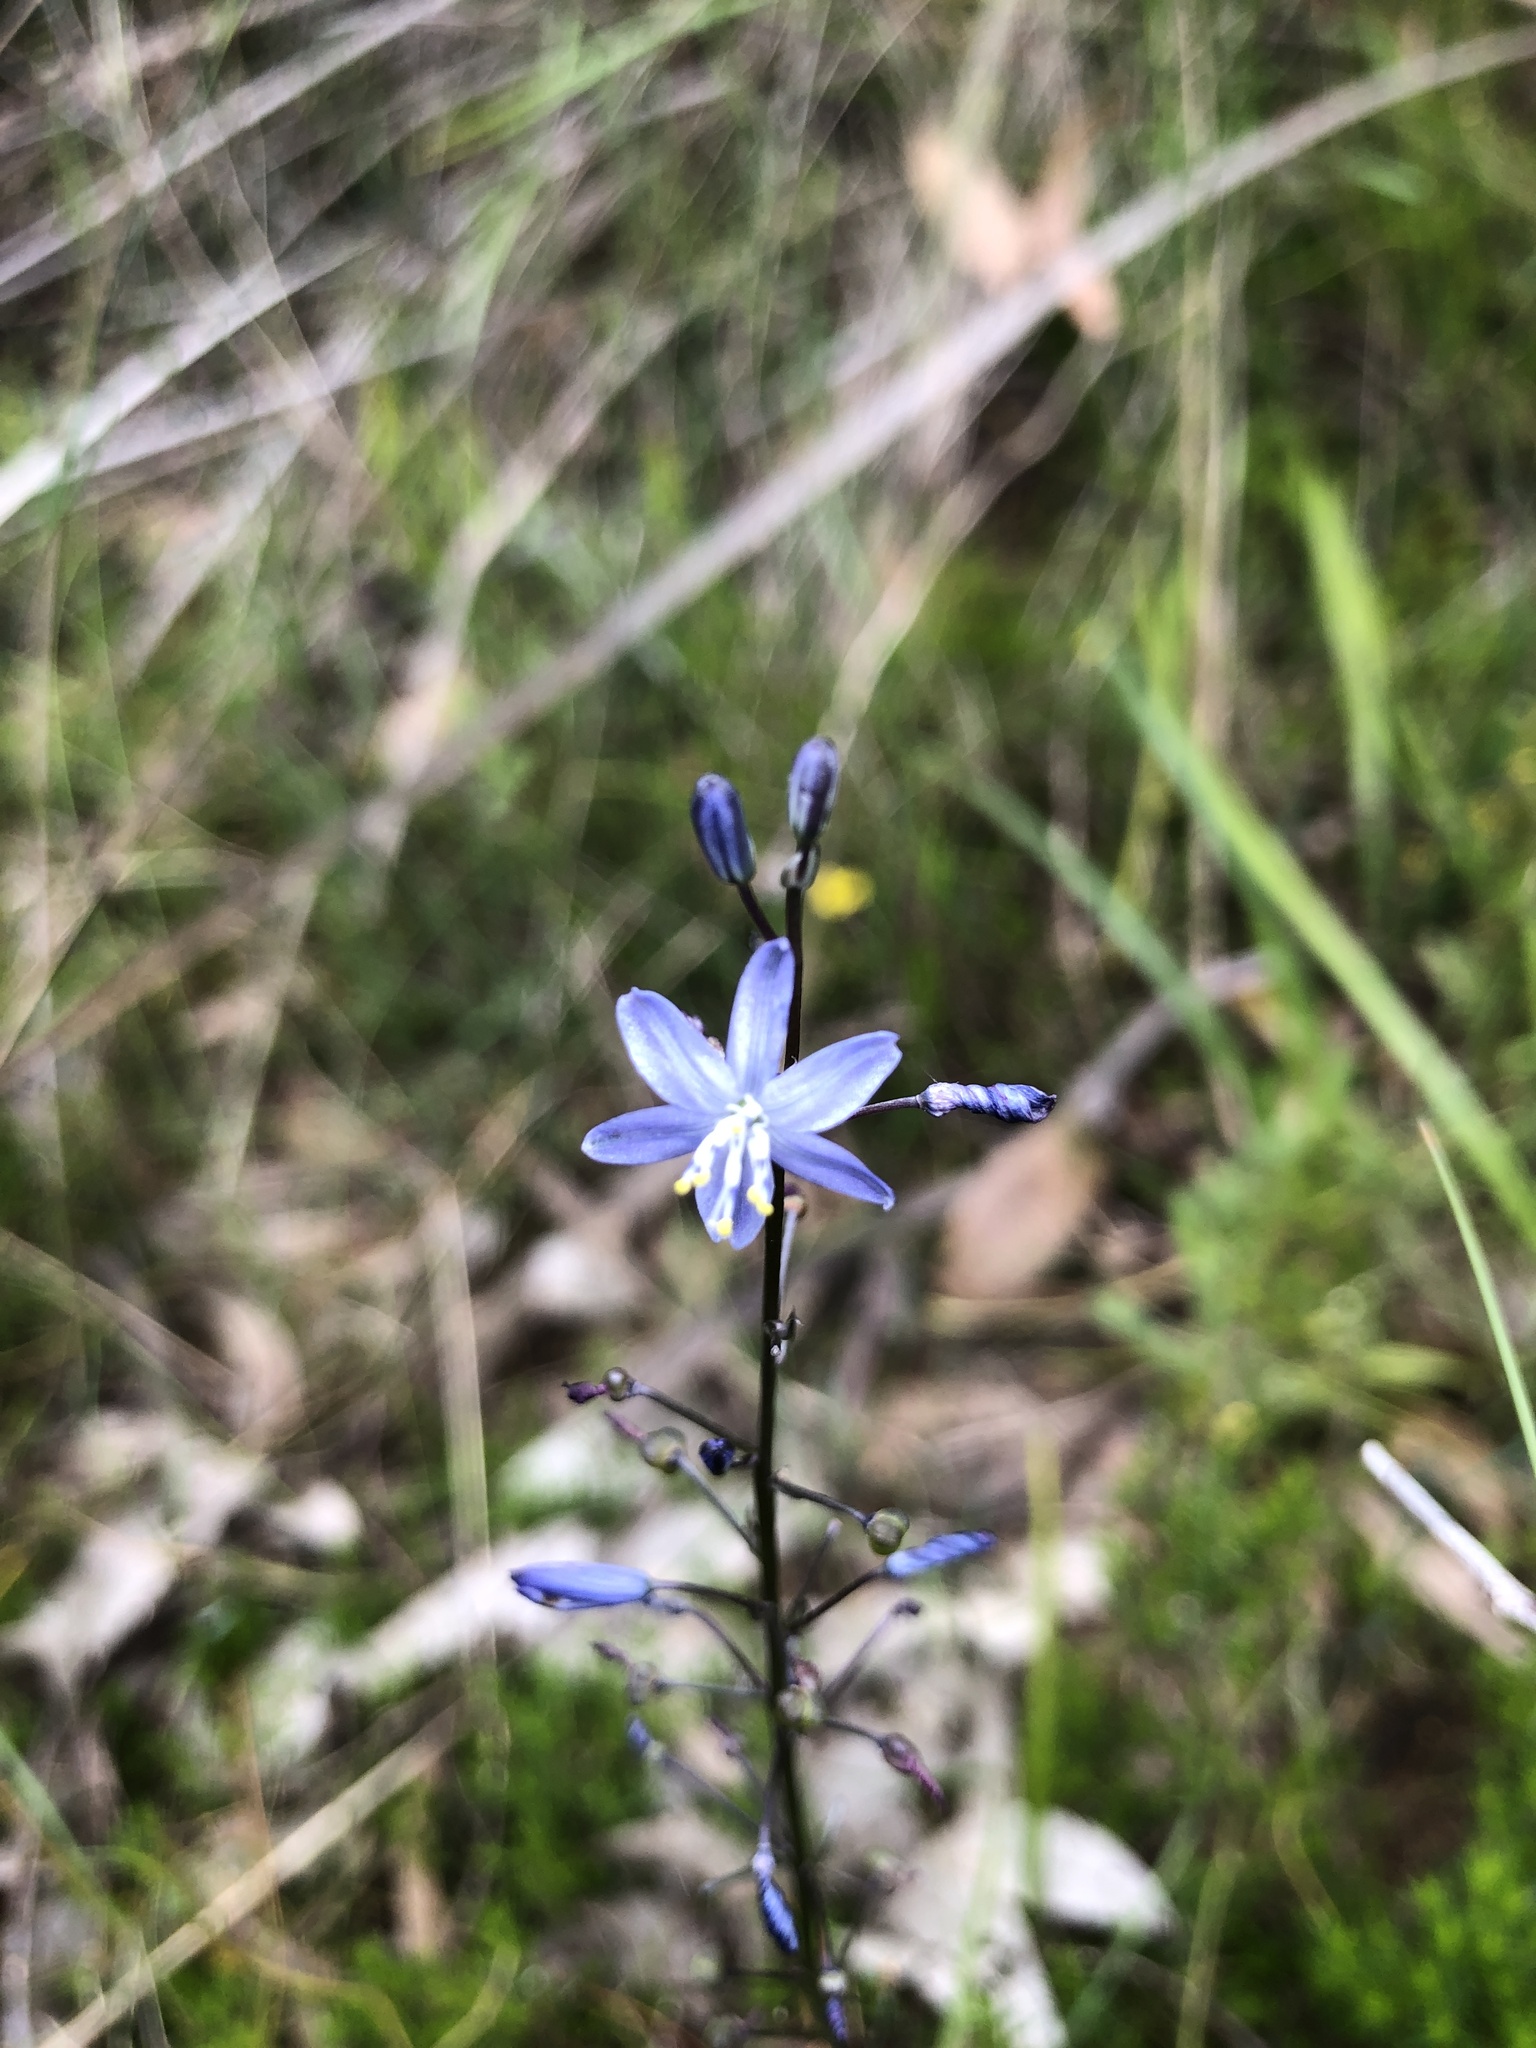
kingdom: Plantae
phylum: Tracheophyta
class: Liliopsida
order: Asparagales
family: Asphodelaceae
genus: Caesia
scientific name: Caesia calliantha
